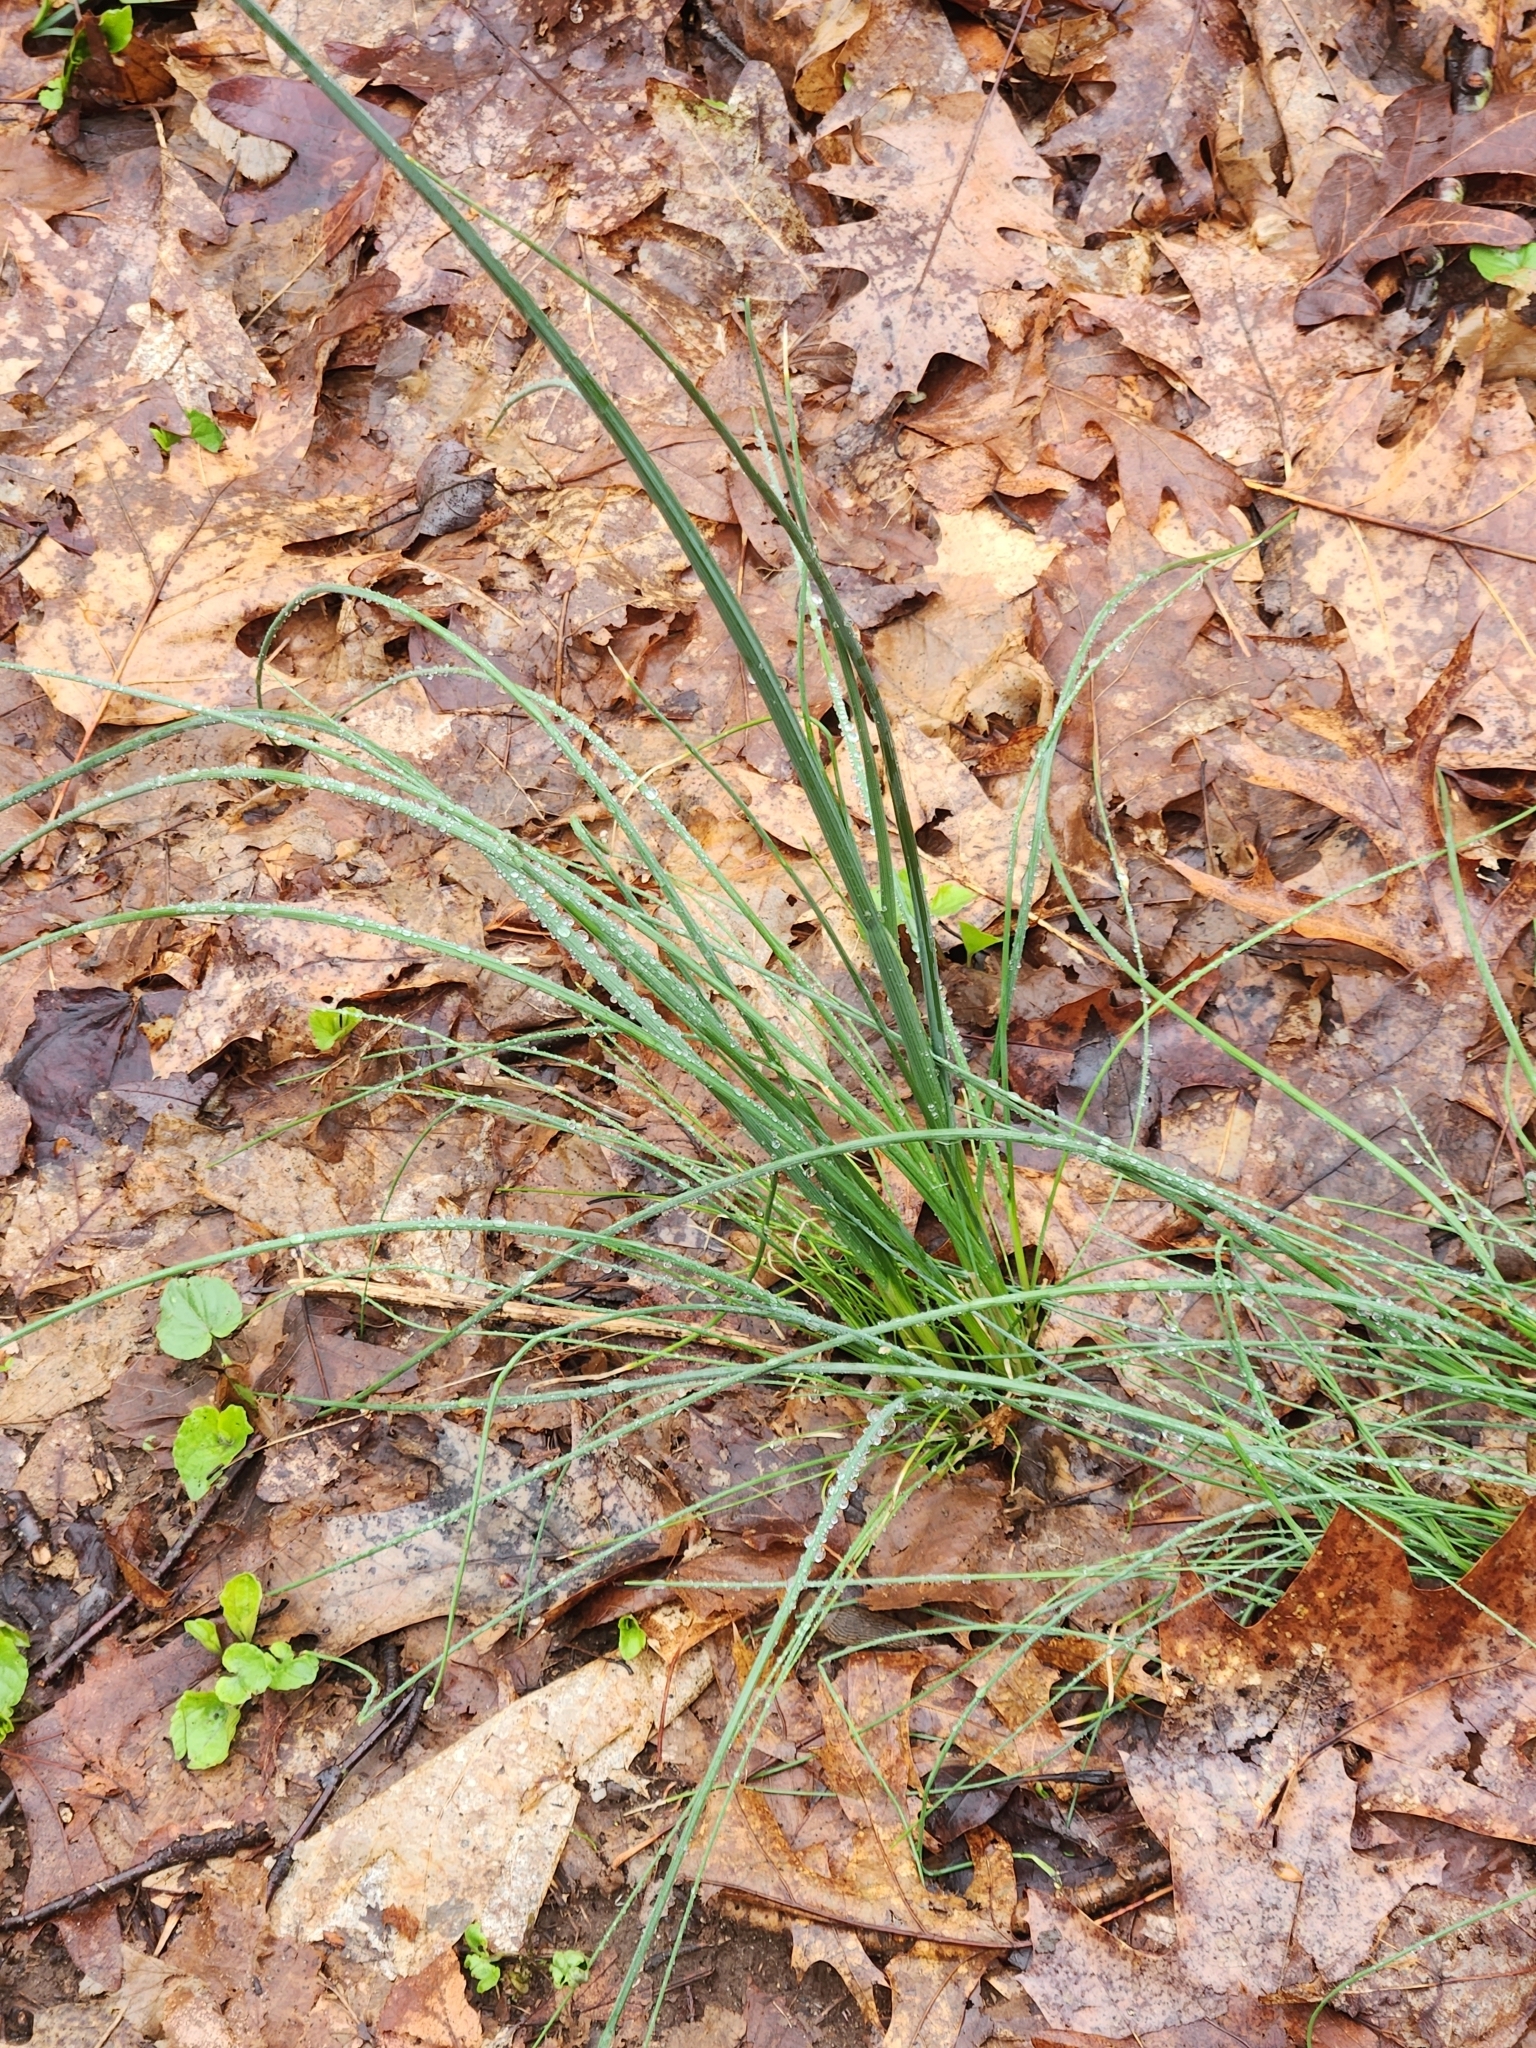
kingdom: Plantae
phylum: Tracheophyta
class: Liliopsida
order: Asparagales
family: Amaryllidaceae
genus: Allium
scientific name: Allium vineale
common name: Crow garlic
